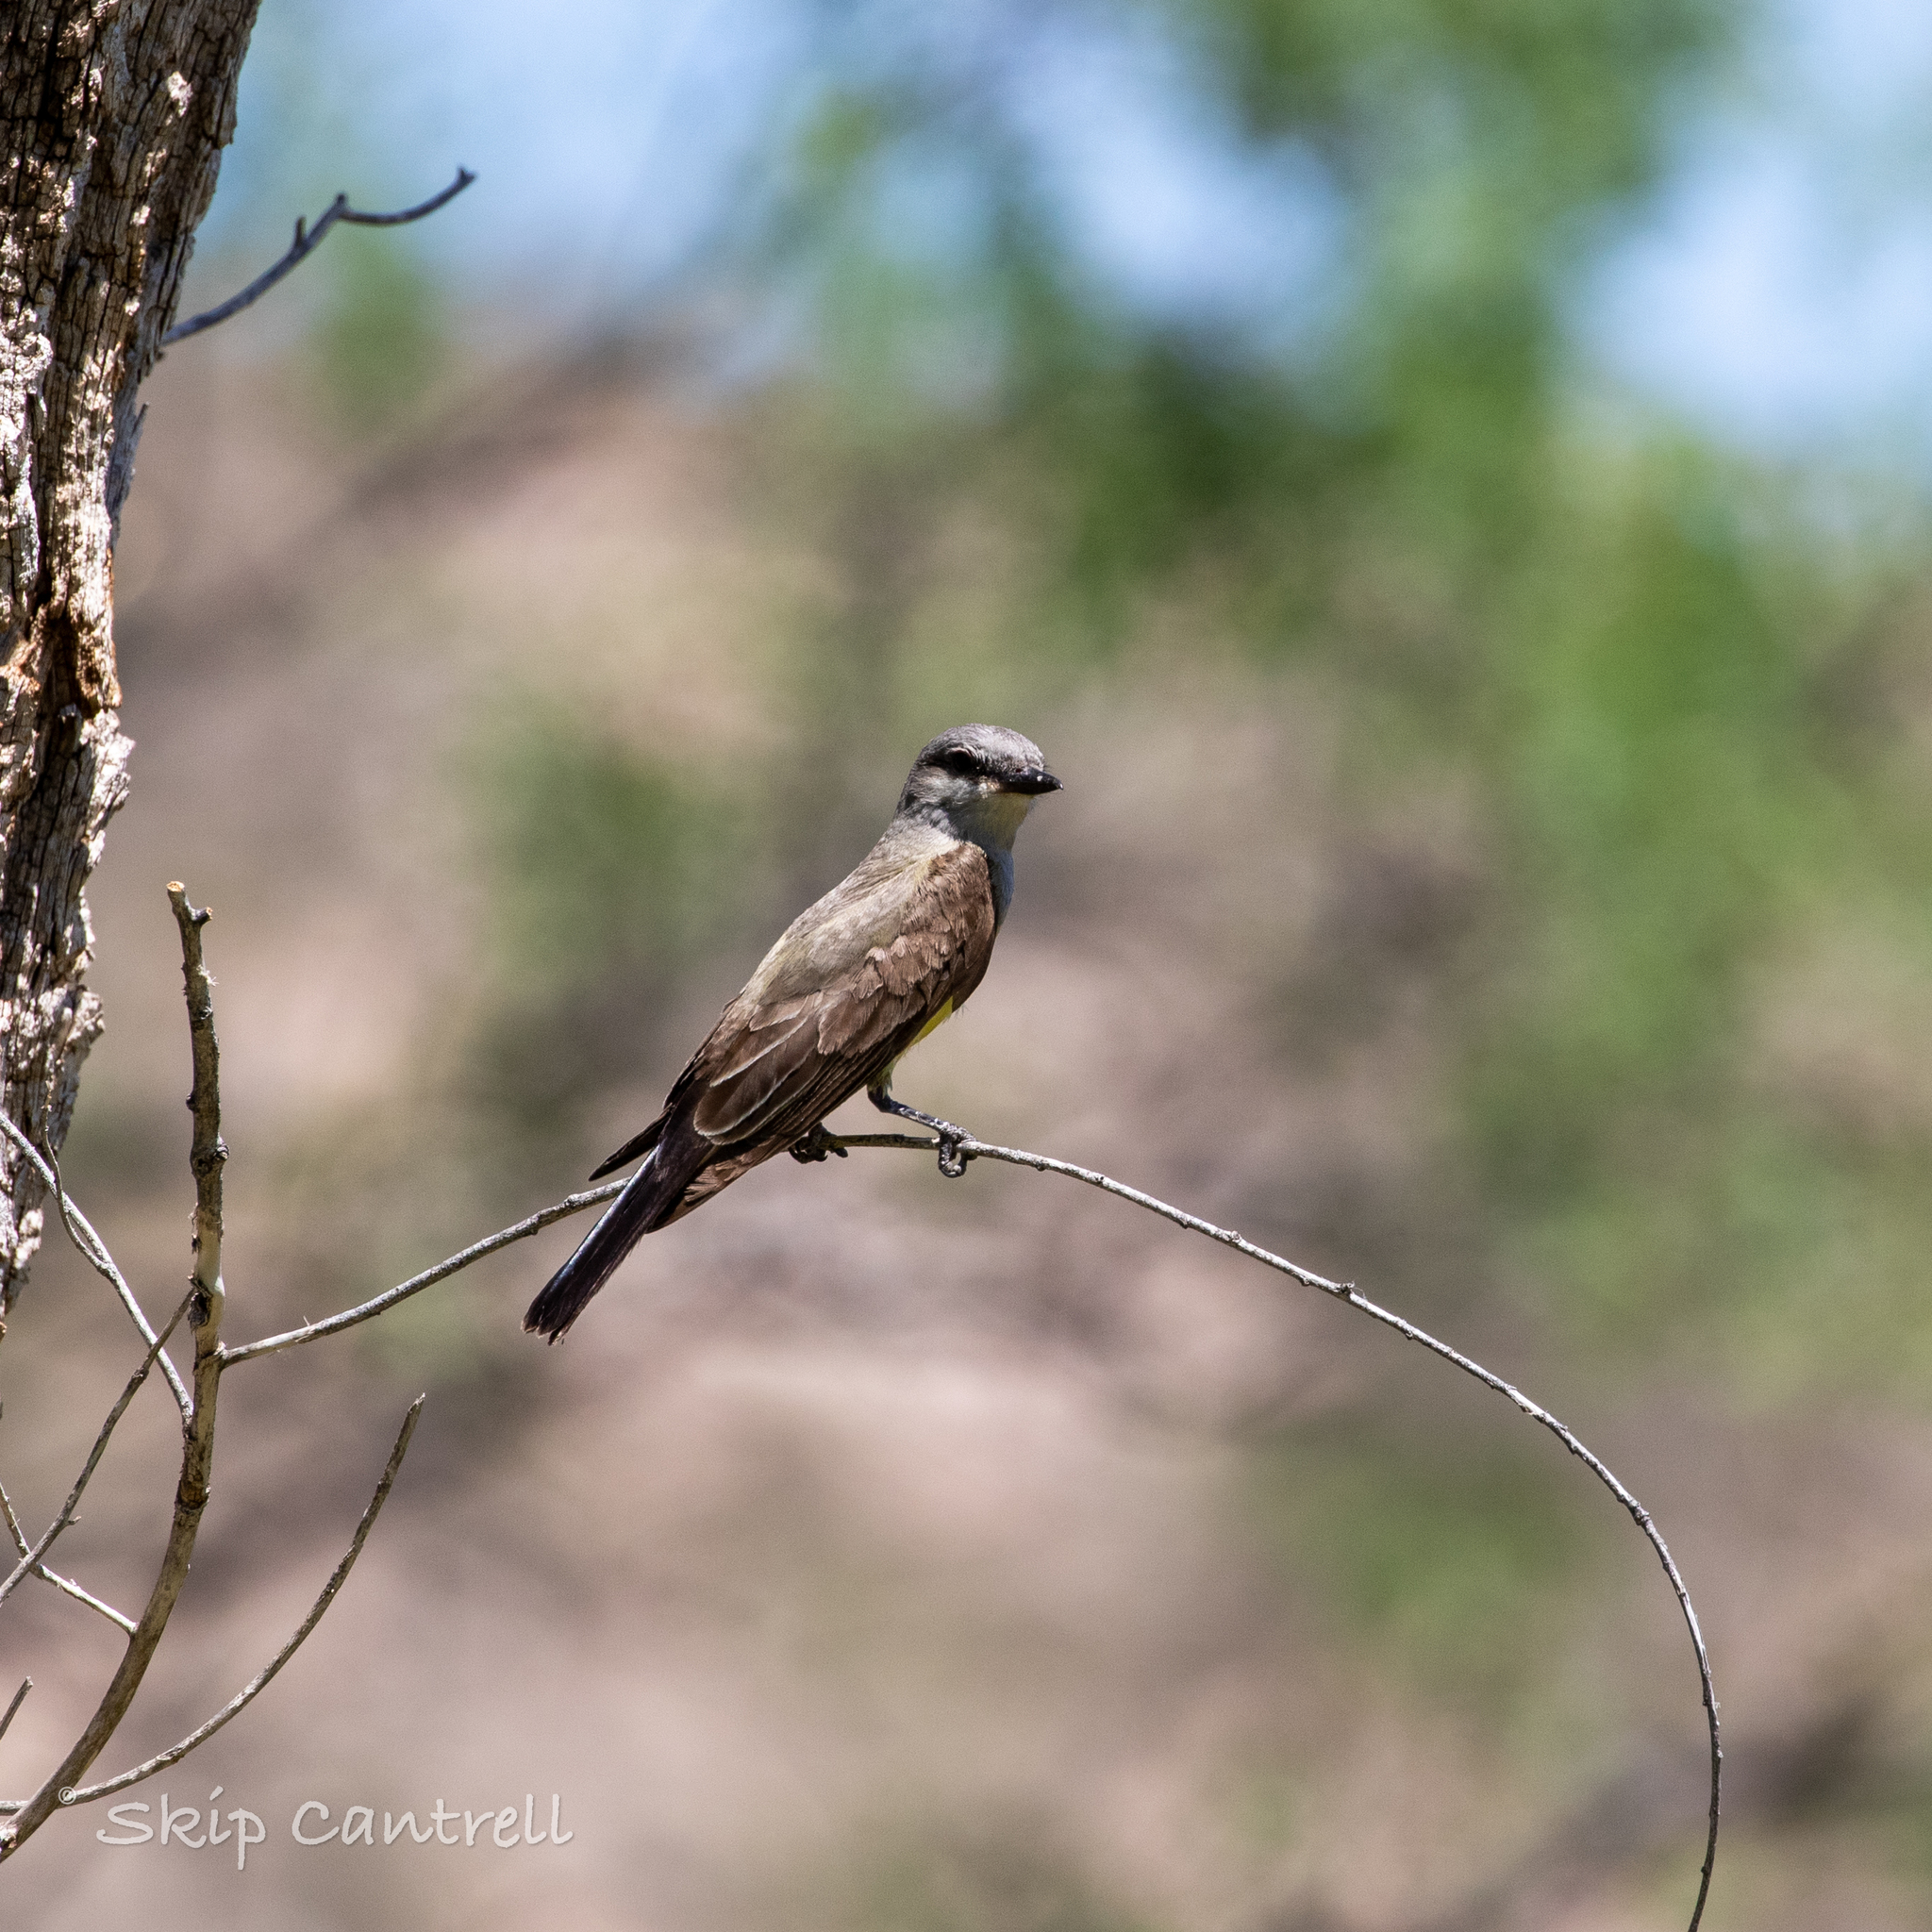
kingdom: Animalia
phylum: Chordata
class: Aves
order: Passeriformes
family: Tyrannidae
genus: Tyrannus
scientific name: Tyrannus verticalis
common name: Western kingbird
